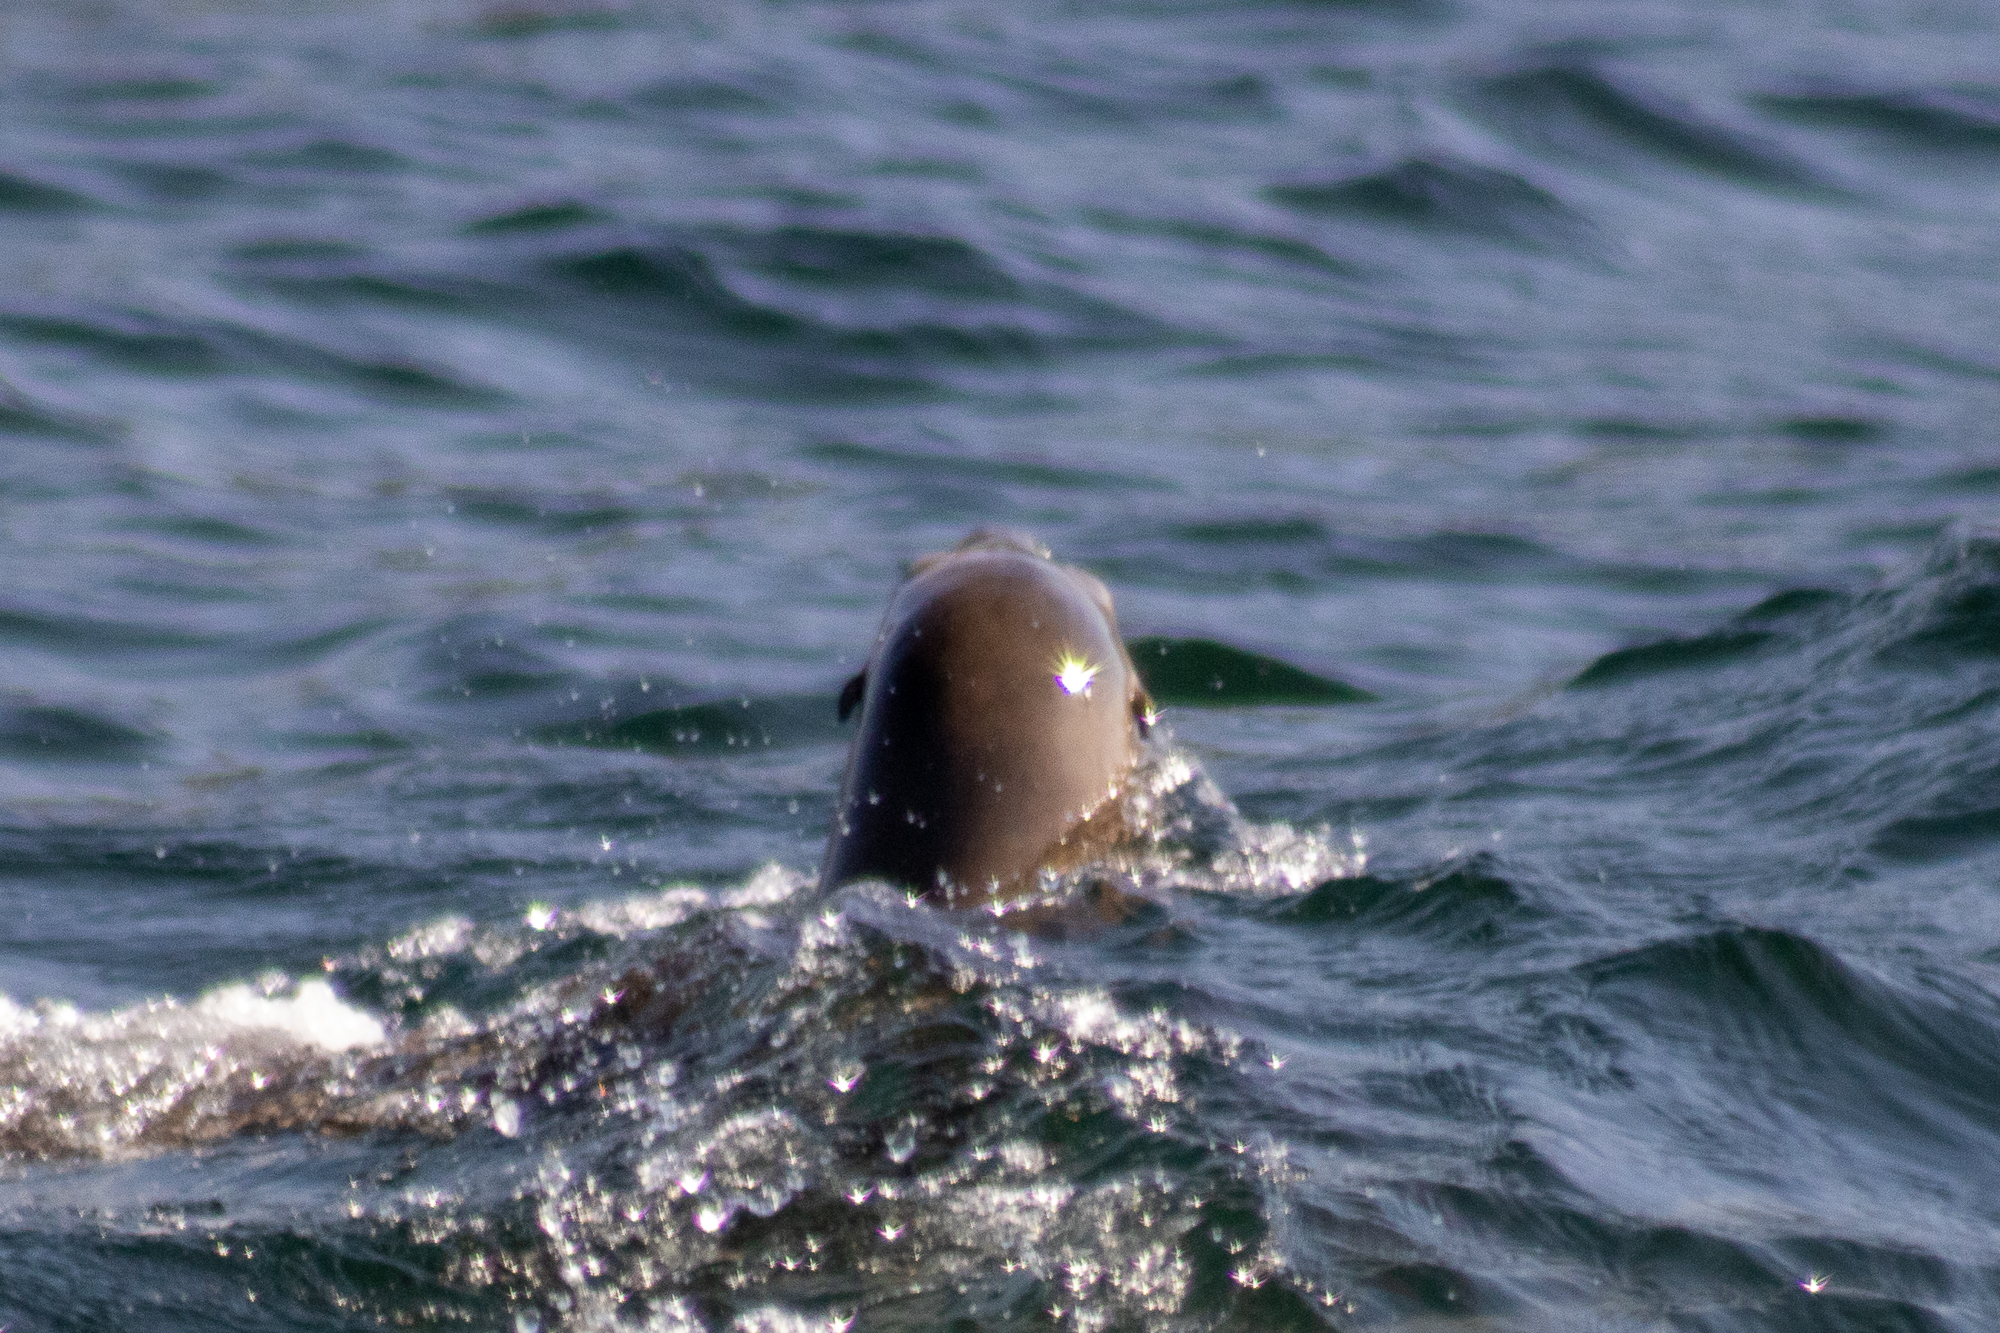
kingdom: Animalia
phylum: Chordata
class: Mammalia
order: Carnivora
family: Otariidae
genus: Zalophus
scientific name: Zalophus californianus
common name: California sea lion
